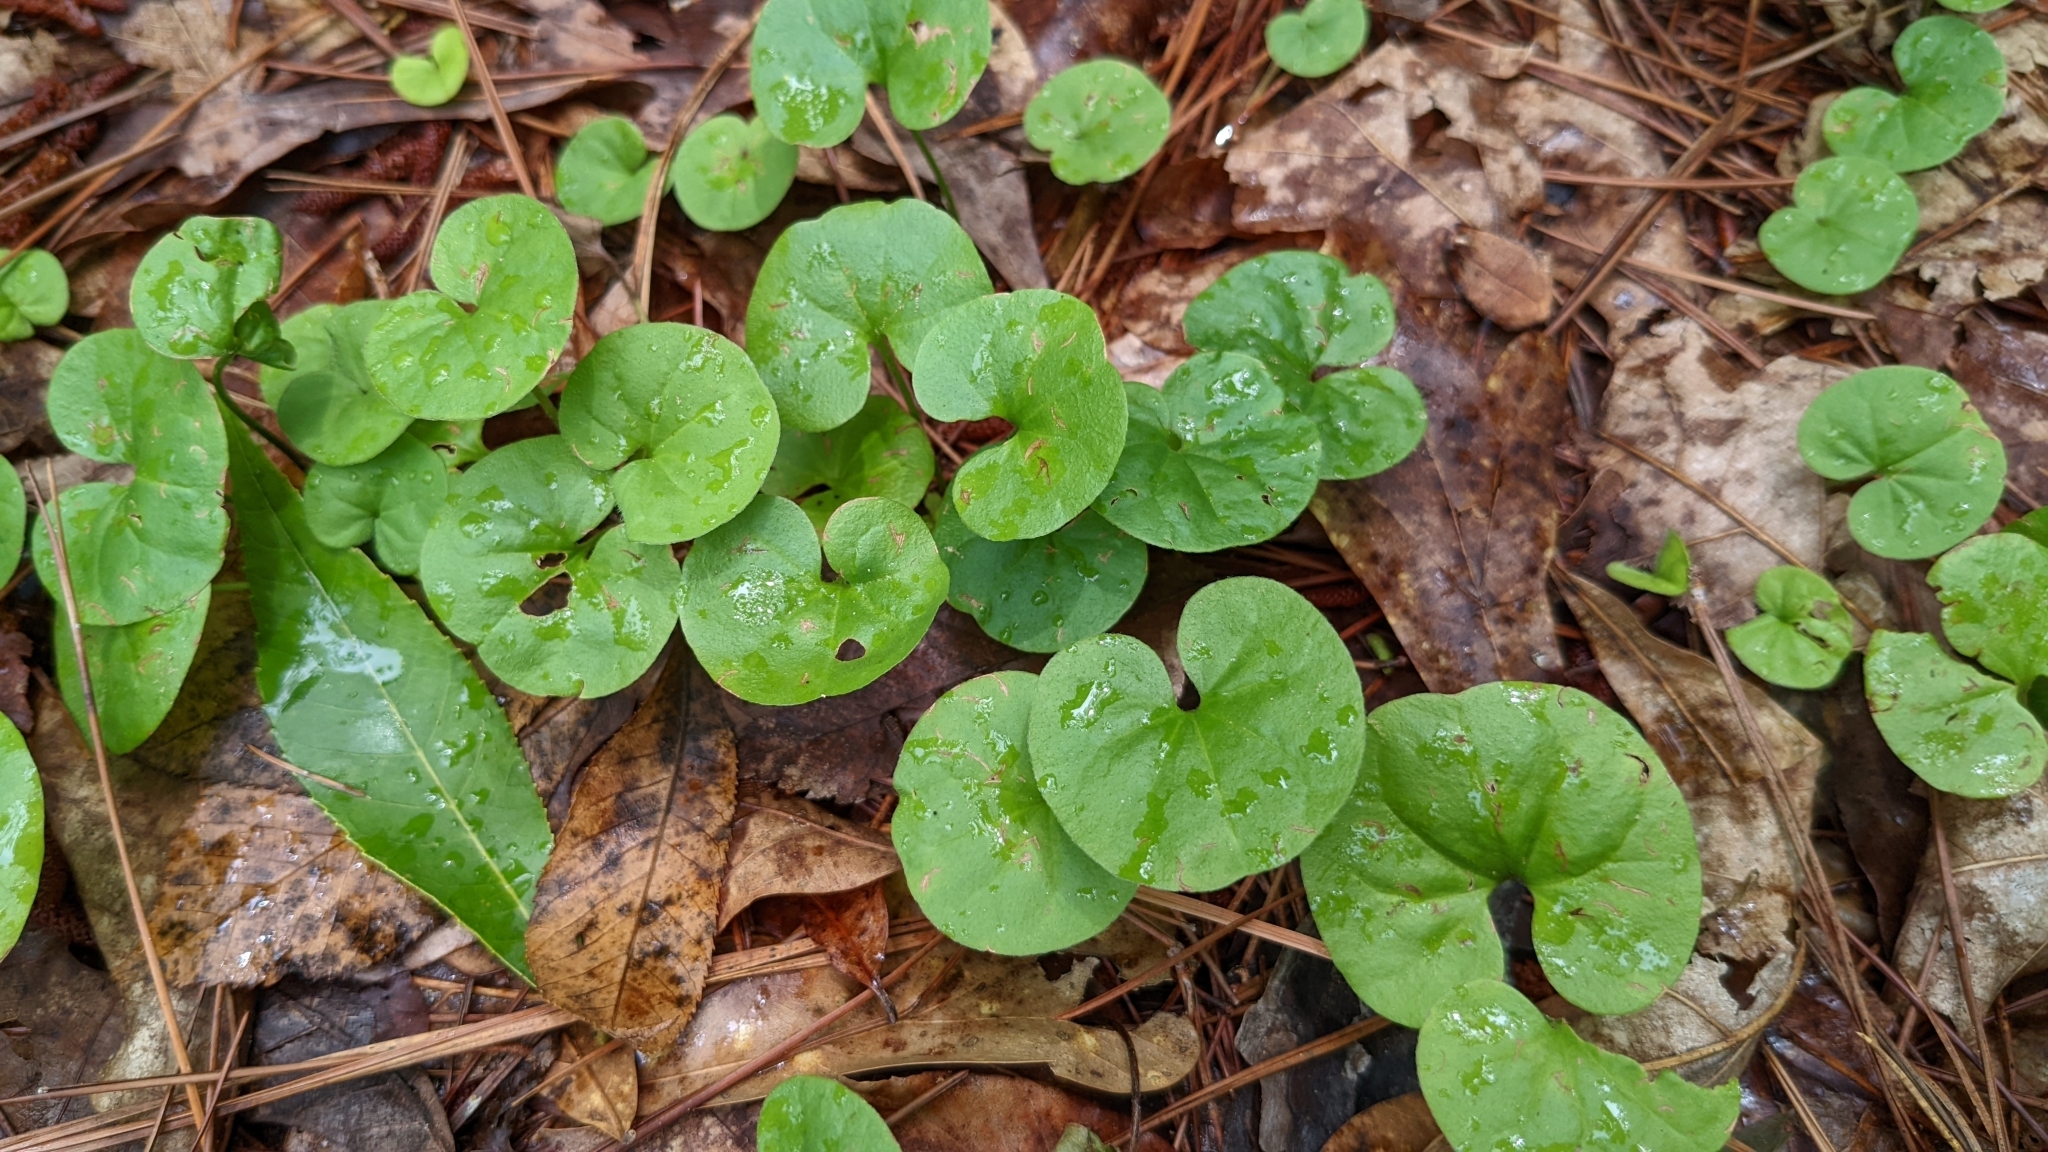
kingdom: Plantae
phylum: Tracheophyta
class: Magnoliopsida
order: Solanales
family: Convolvulaceae
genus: Dichondra
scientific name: Dichondra carolinensis
